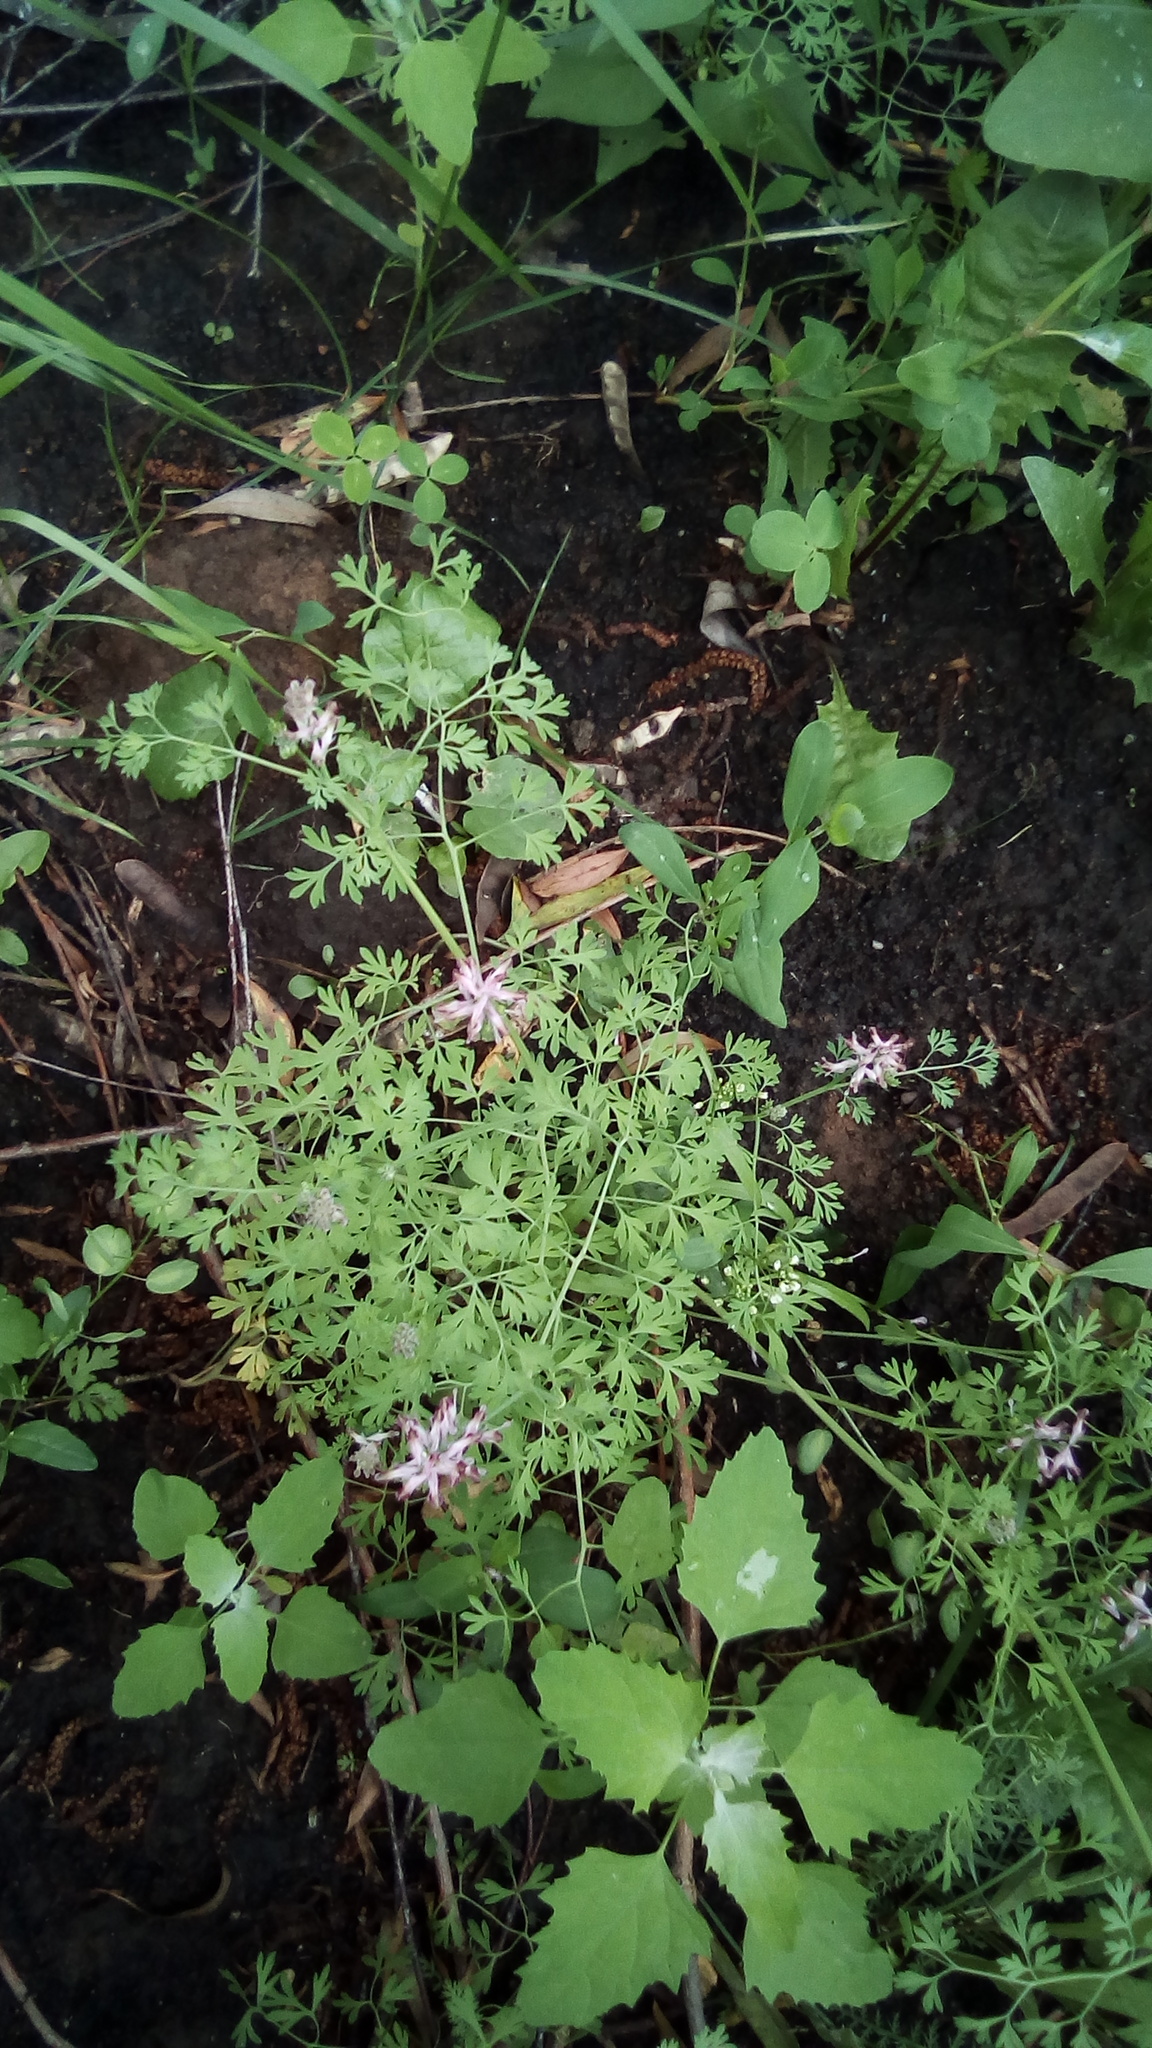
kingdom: Plantae
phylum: Tracheophyta
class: Magnoliopsida
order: Ranunculales
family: Papaveraceae
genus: Fumaria
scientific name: Fumaria officinalis
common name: Common fumitory
